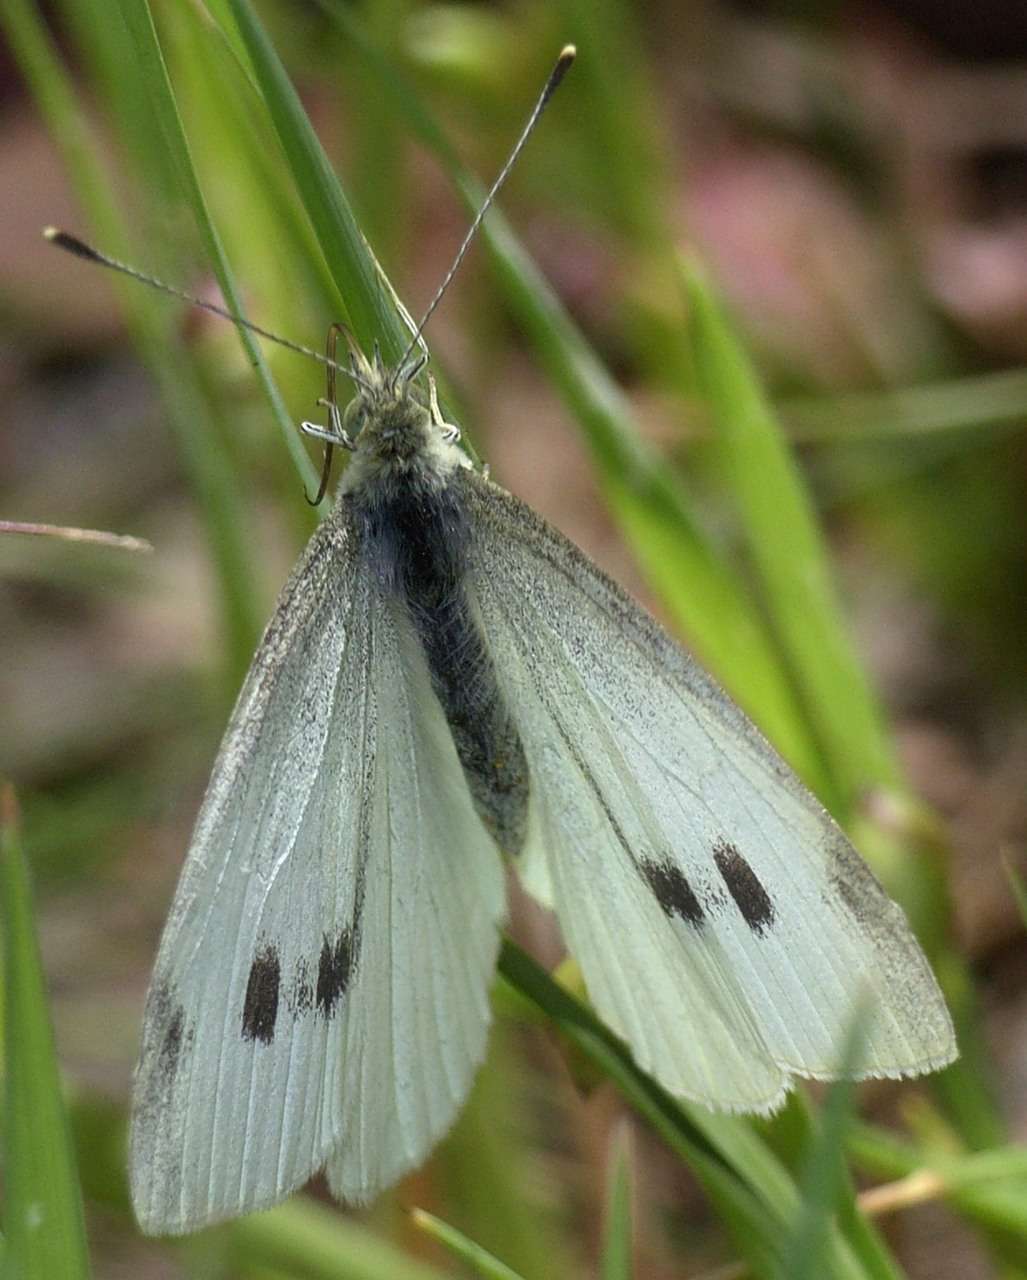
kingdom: Animalia
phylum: Arthropoda
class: Insecta
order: Lepidoptera
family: Pieridae
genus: Pieris
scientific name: Pieris rapae
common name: Small white
